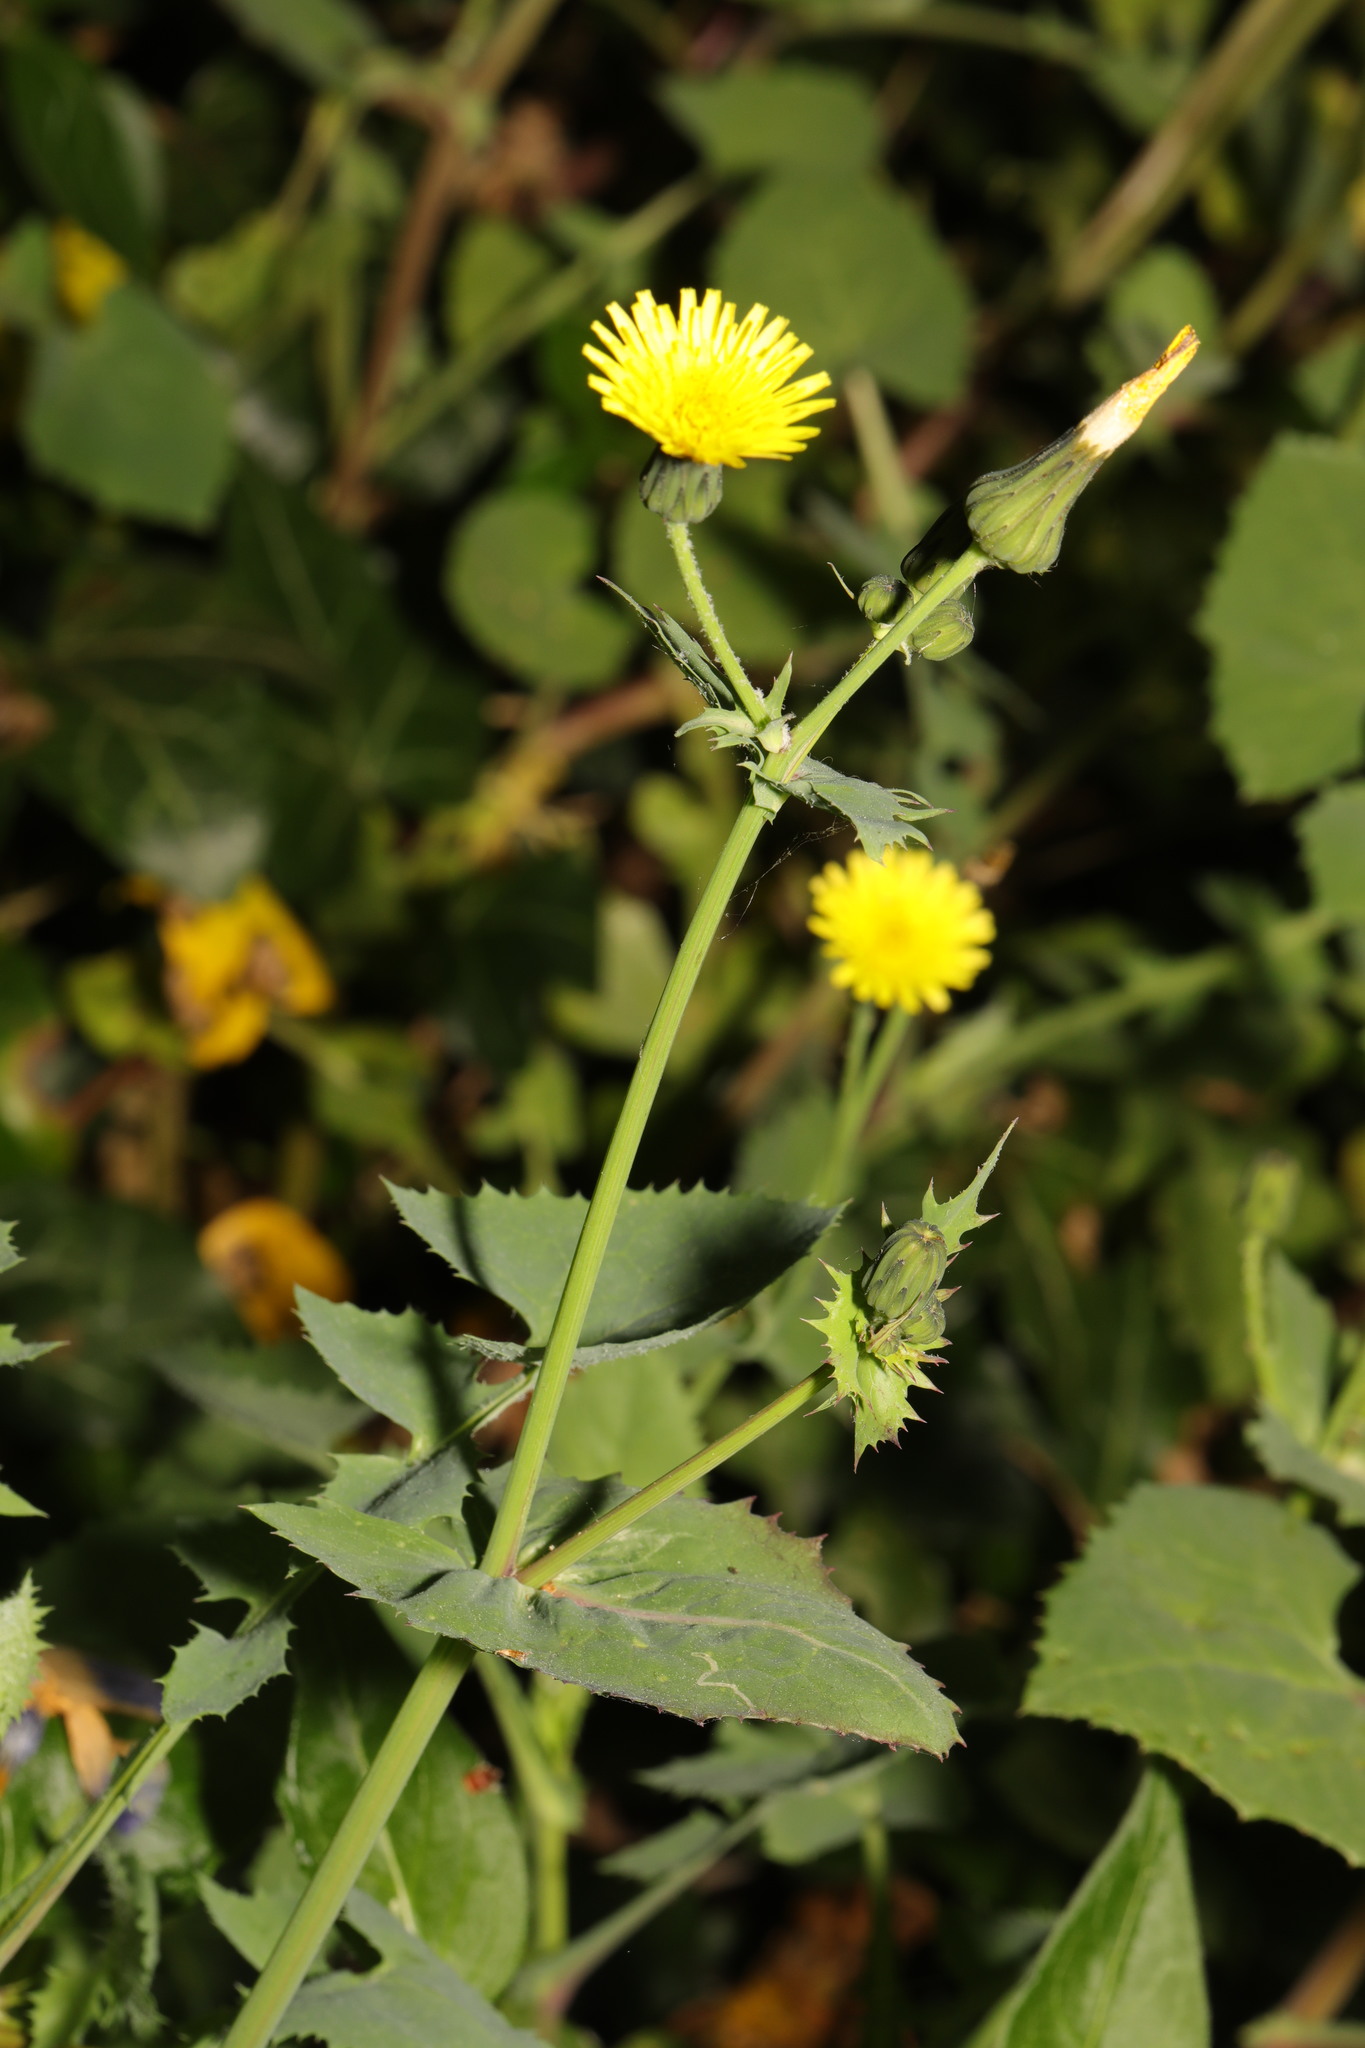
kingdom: Plantae
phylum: Tracheophyta
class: Magnoliopsida
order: Asterales
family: Asteraceae
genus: Sonchus
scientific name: Sonchus oleraceus
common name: Common sowthistle
